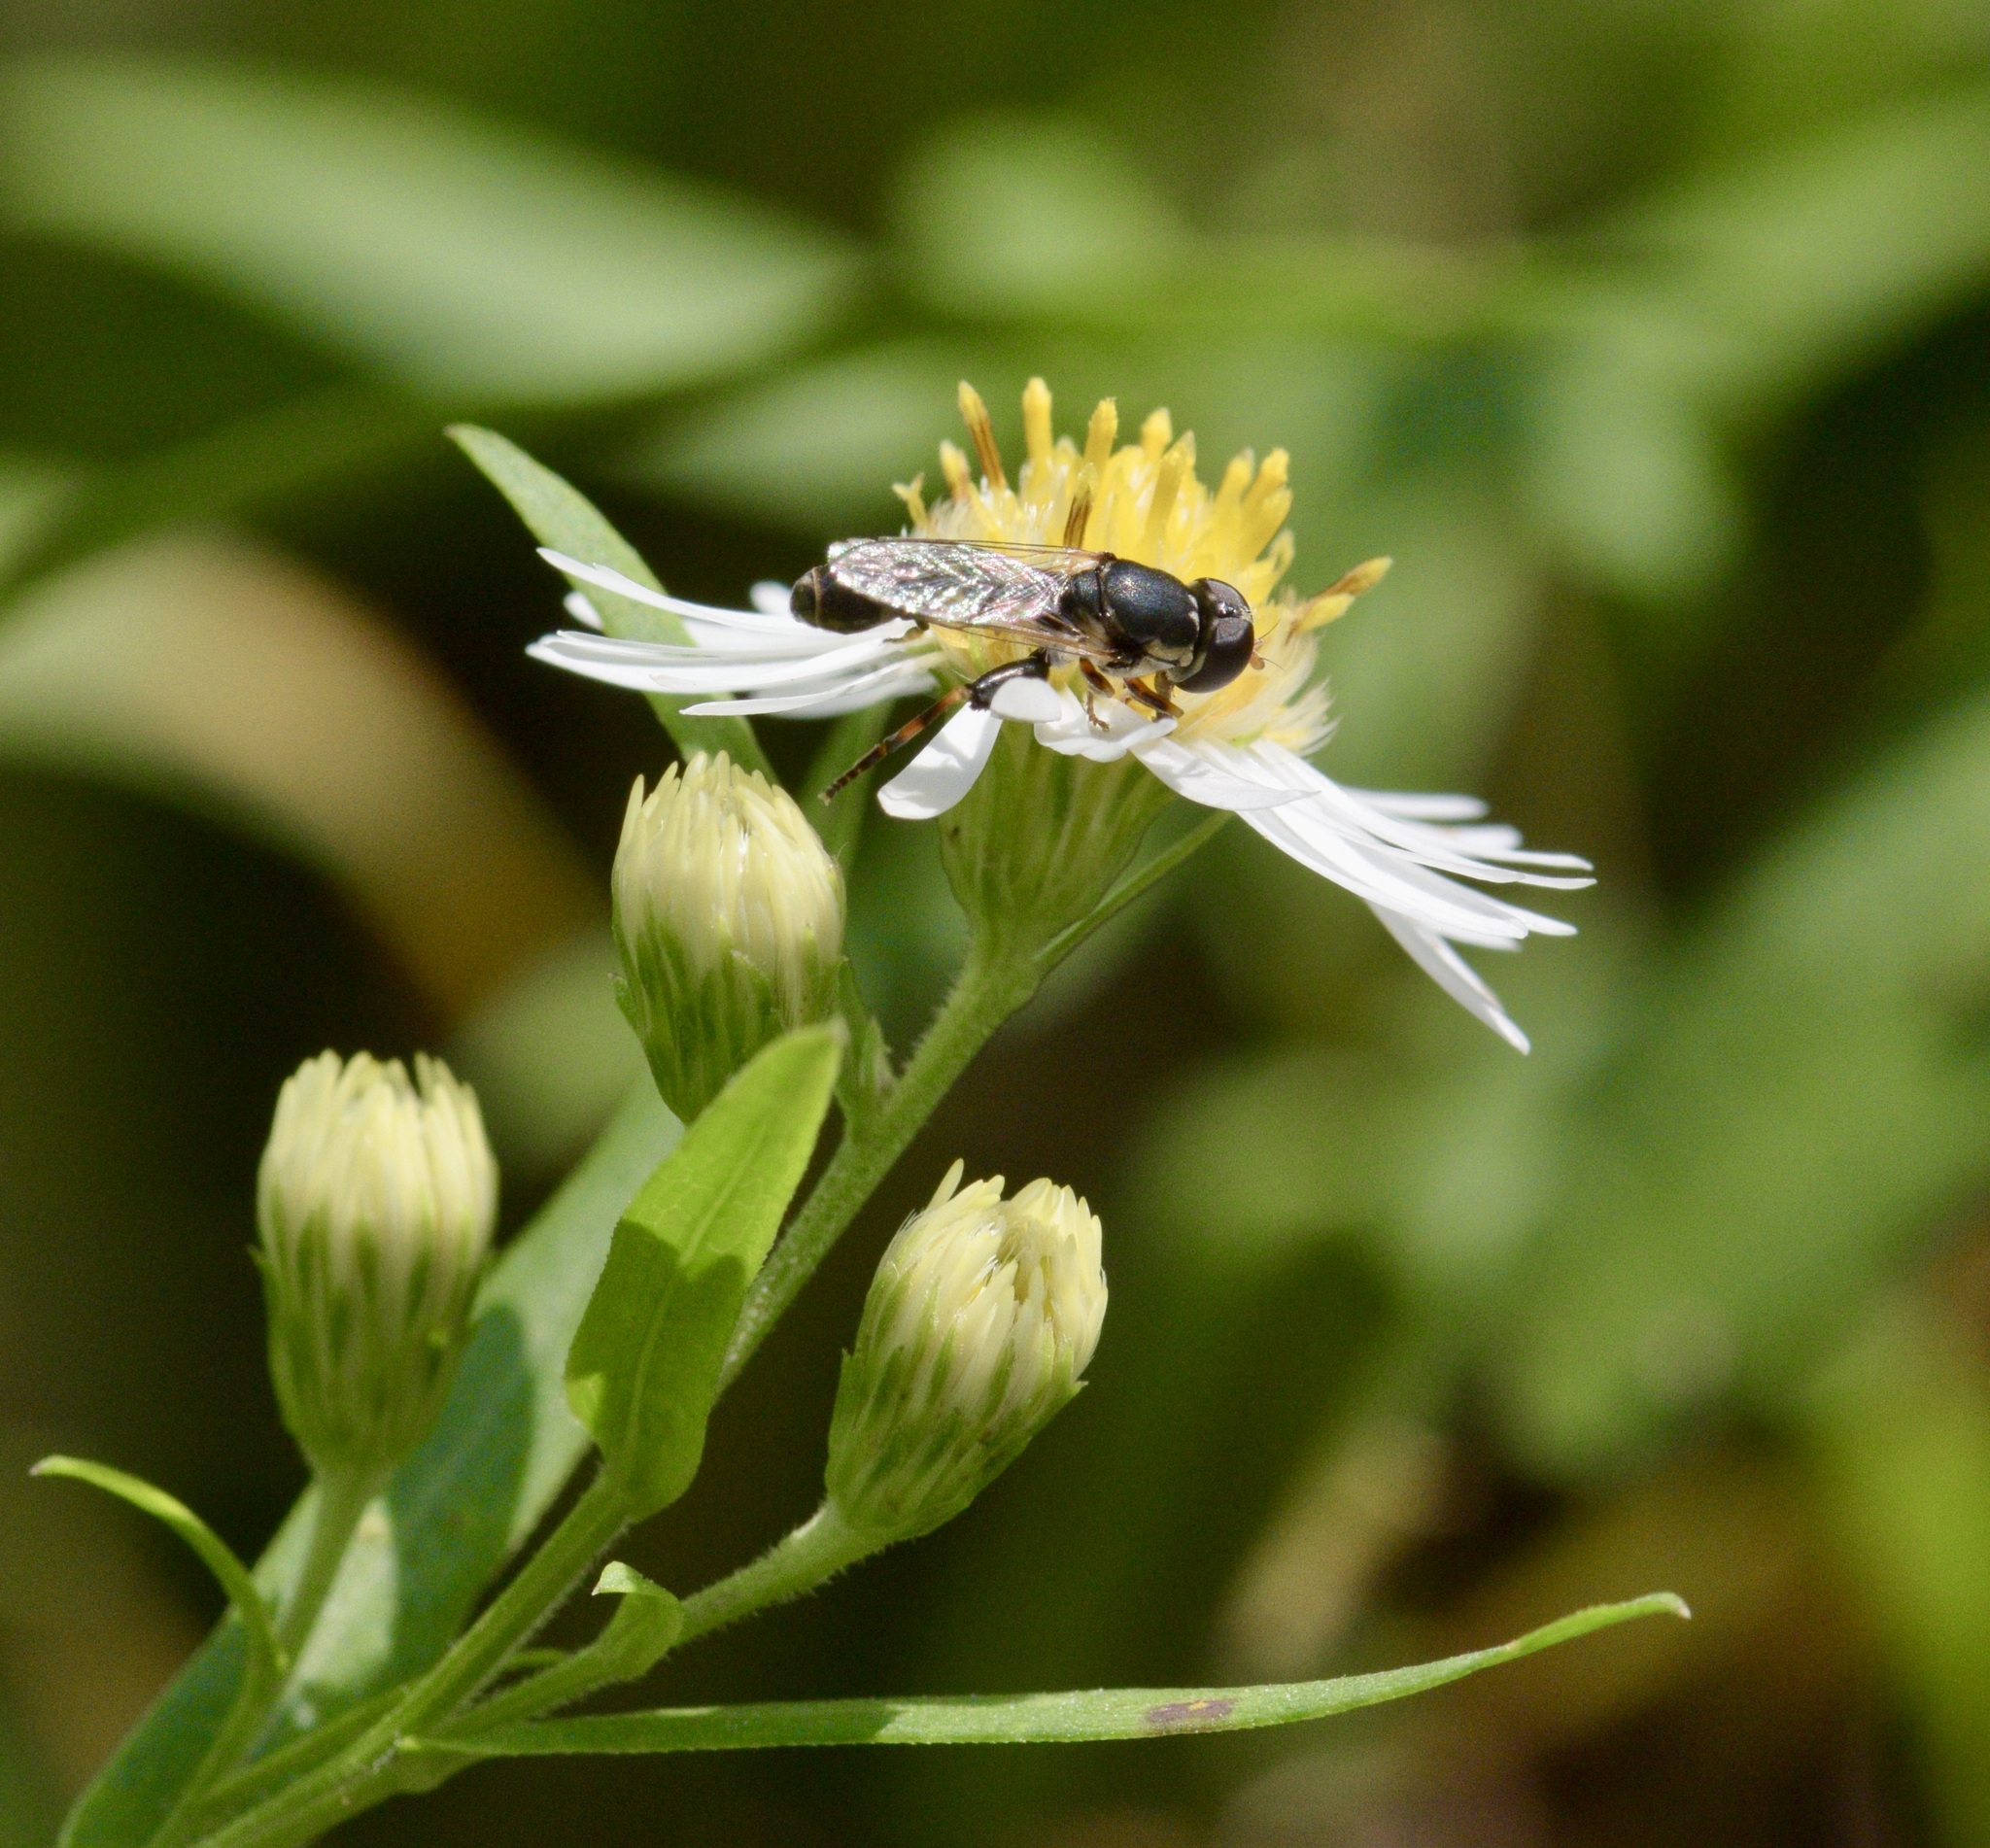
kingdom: Animalia
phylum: Arthropoda
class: Insecta
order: Diptera
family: Syrphidae
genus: Syritta
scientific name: Syritta pipiens
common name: Hover fly
